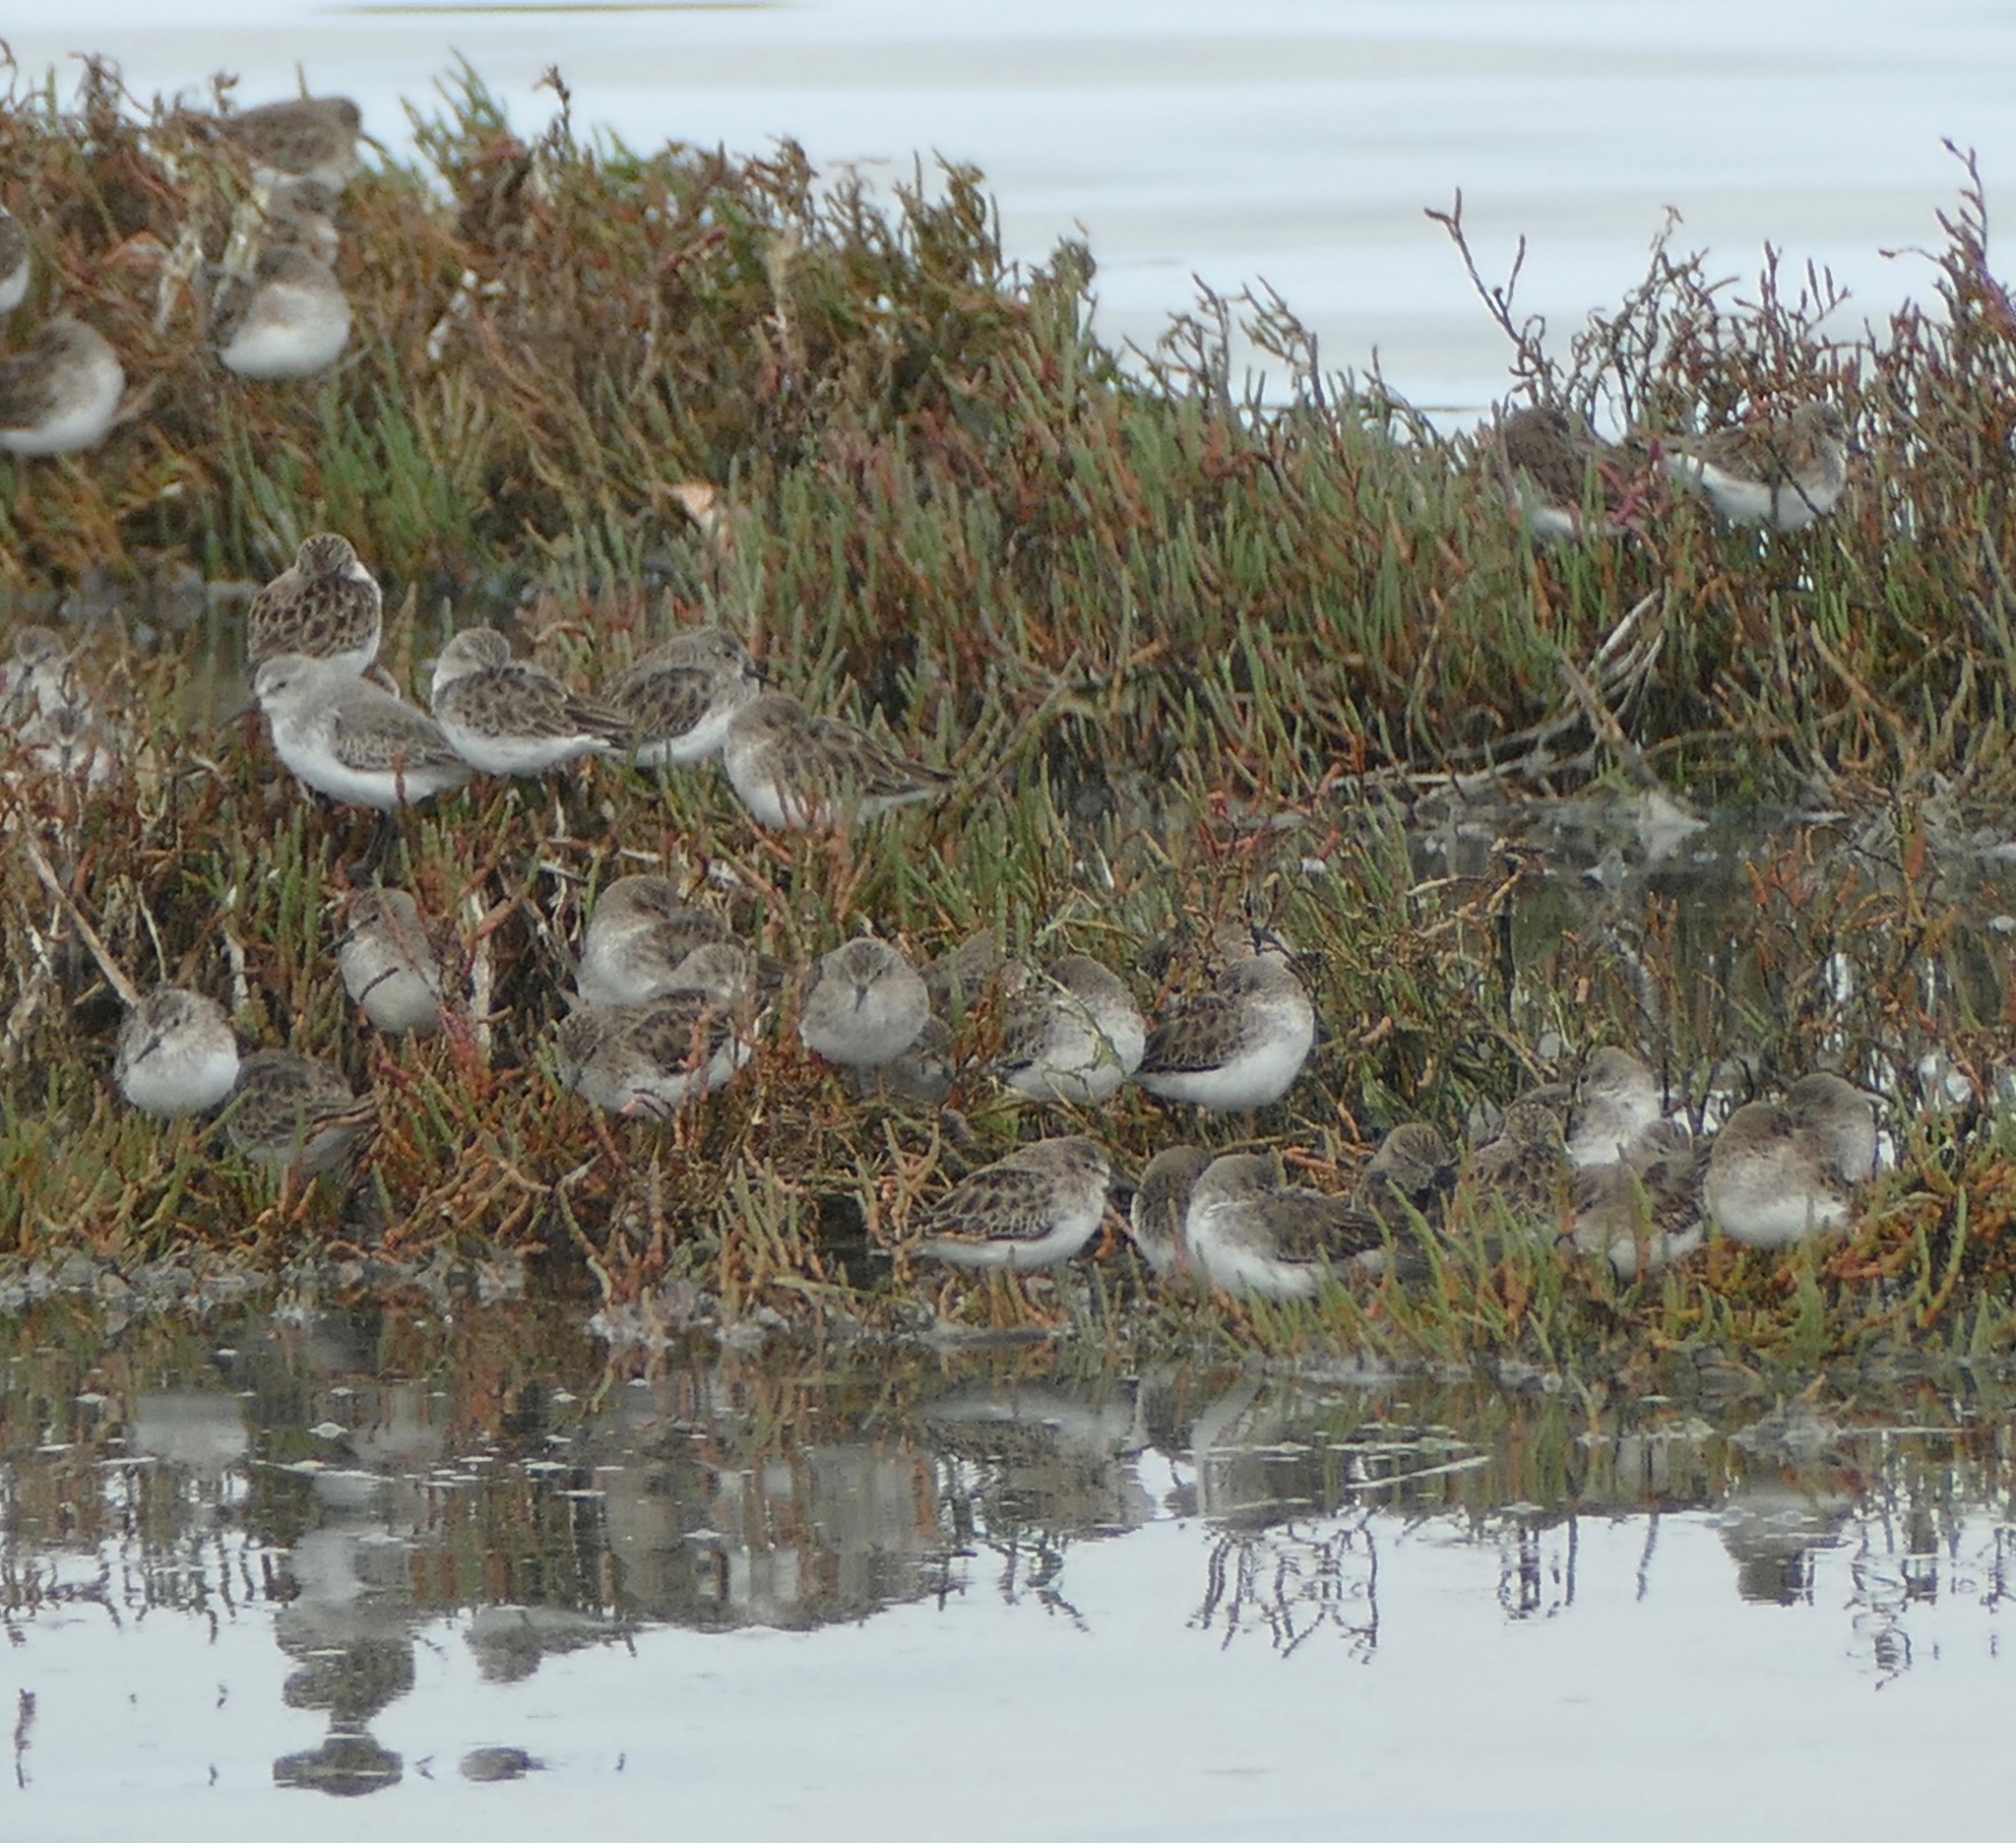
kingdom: Animalia
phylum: Chordata
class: Aves
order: Charadriiformes
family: Scolopacidae
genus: Calidris
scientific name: Calidris
